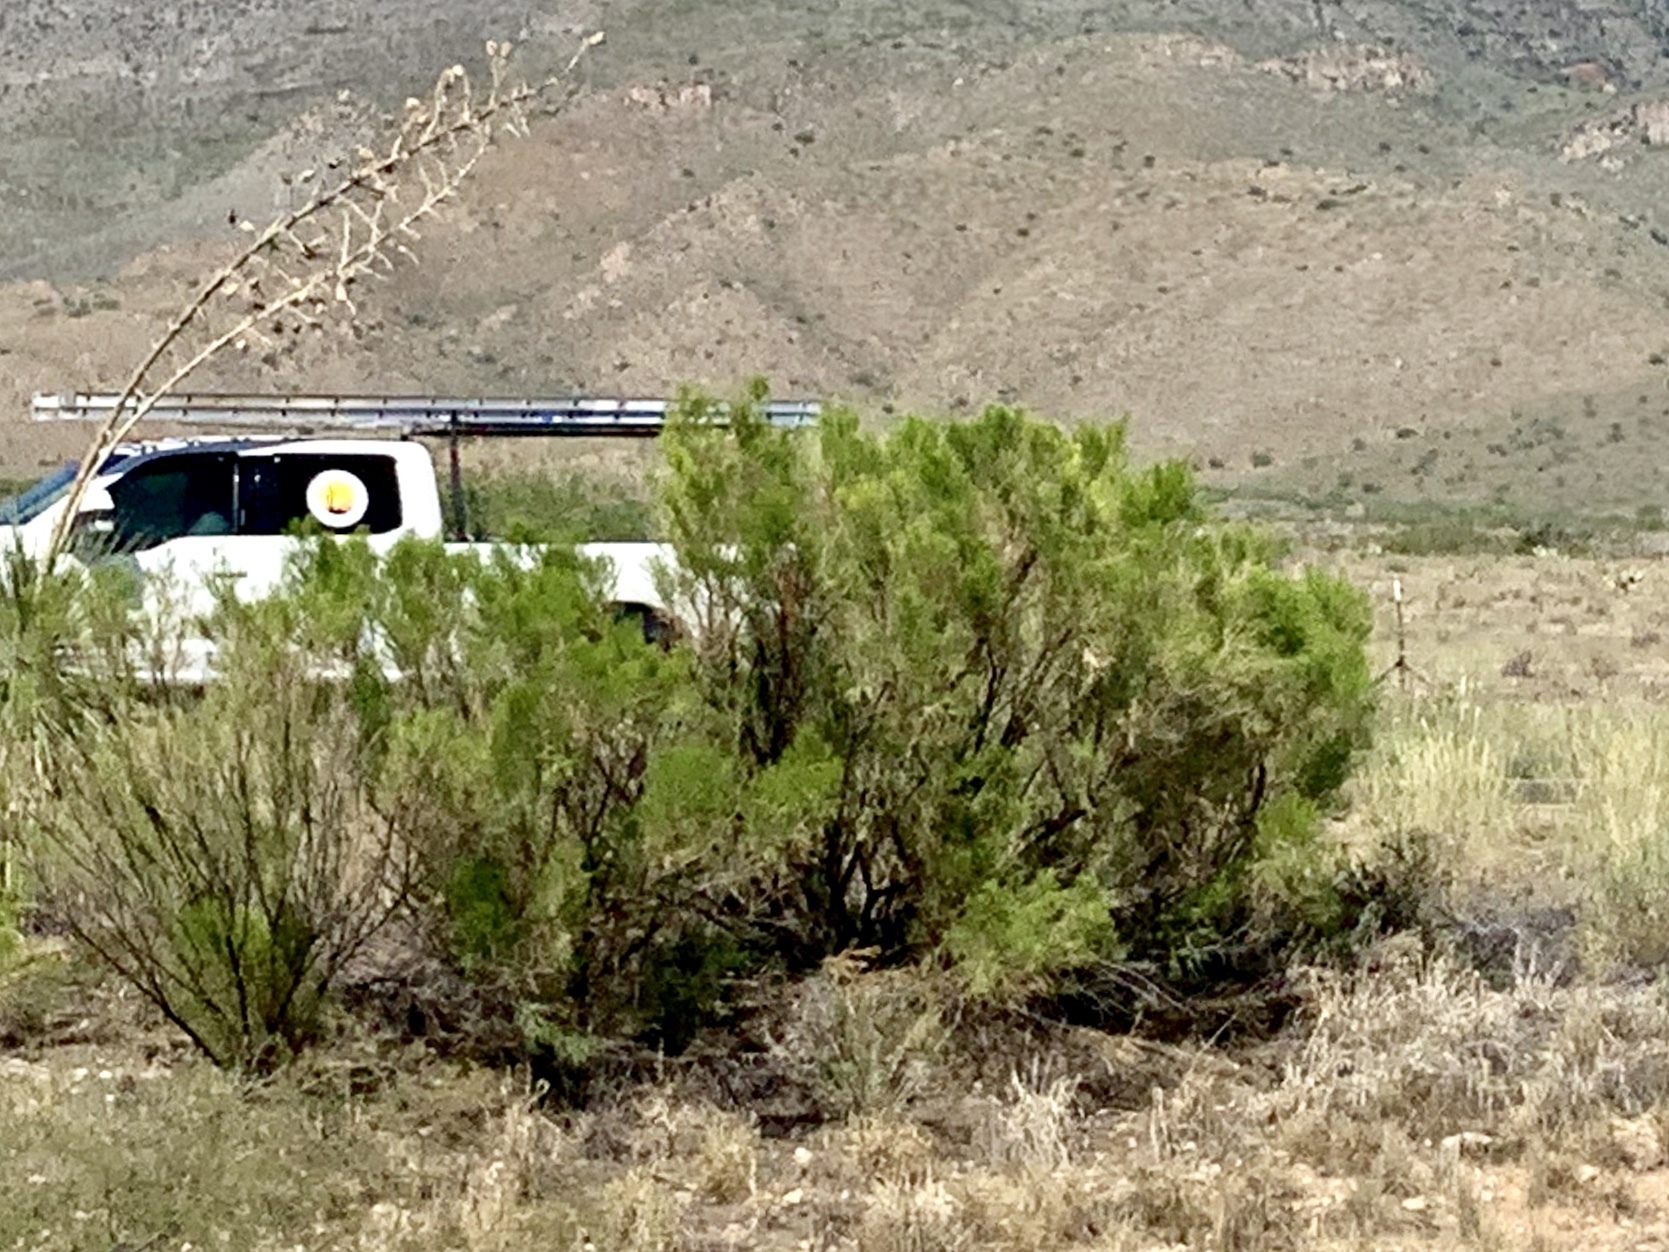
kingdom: Plantae
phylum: Tracheophyta
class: Magnoliopsida
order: Asterales
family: Asteraceae
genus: Baccharis
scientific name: Baccharis sarothroides
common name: Desert-broom
